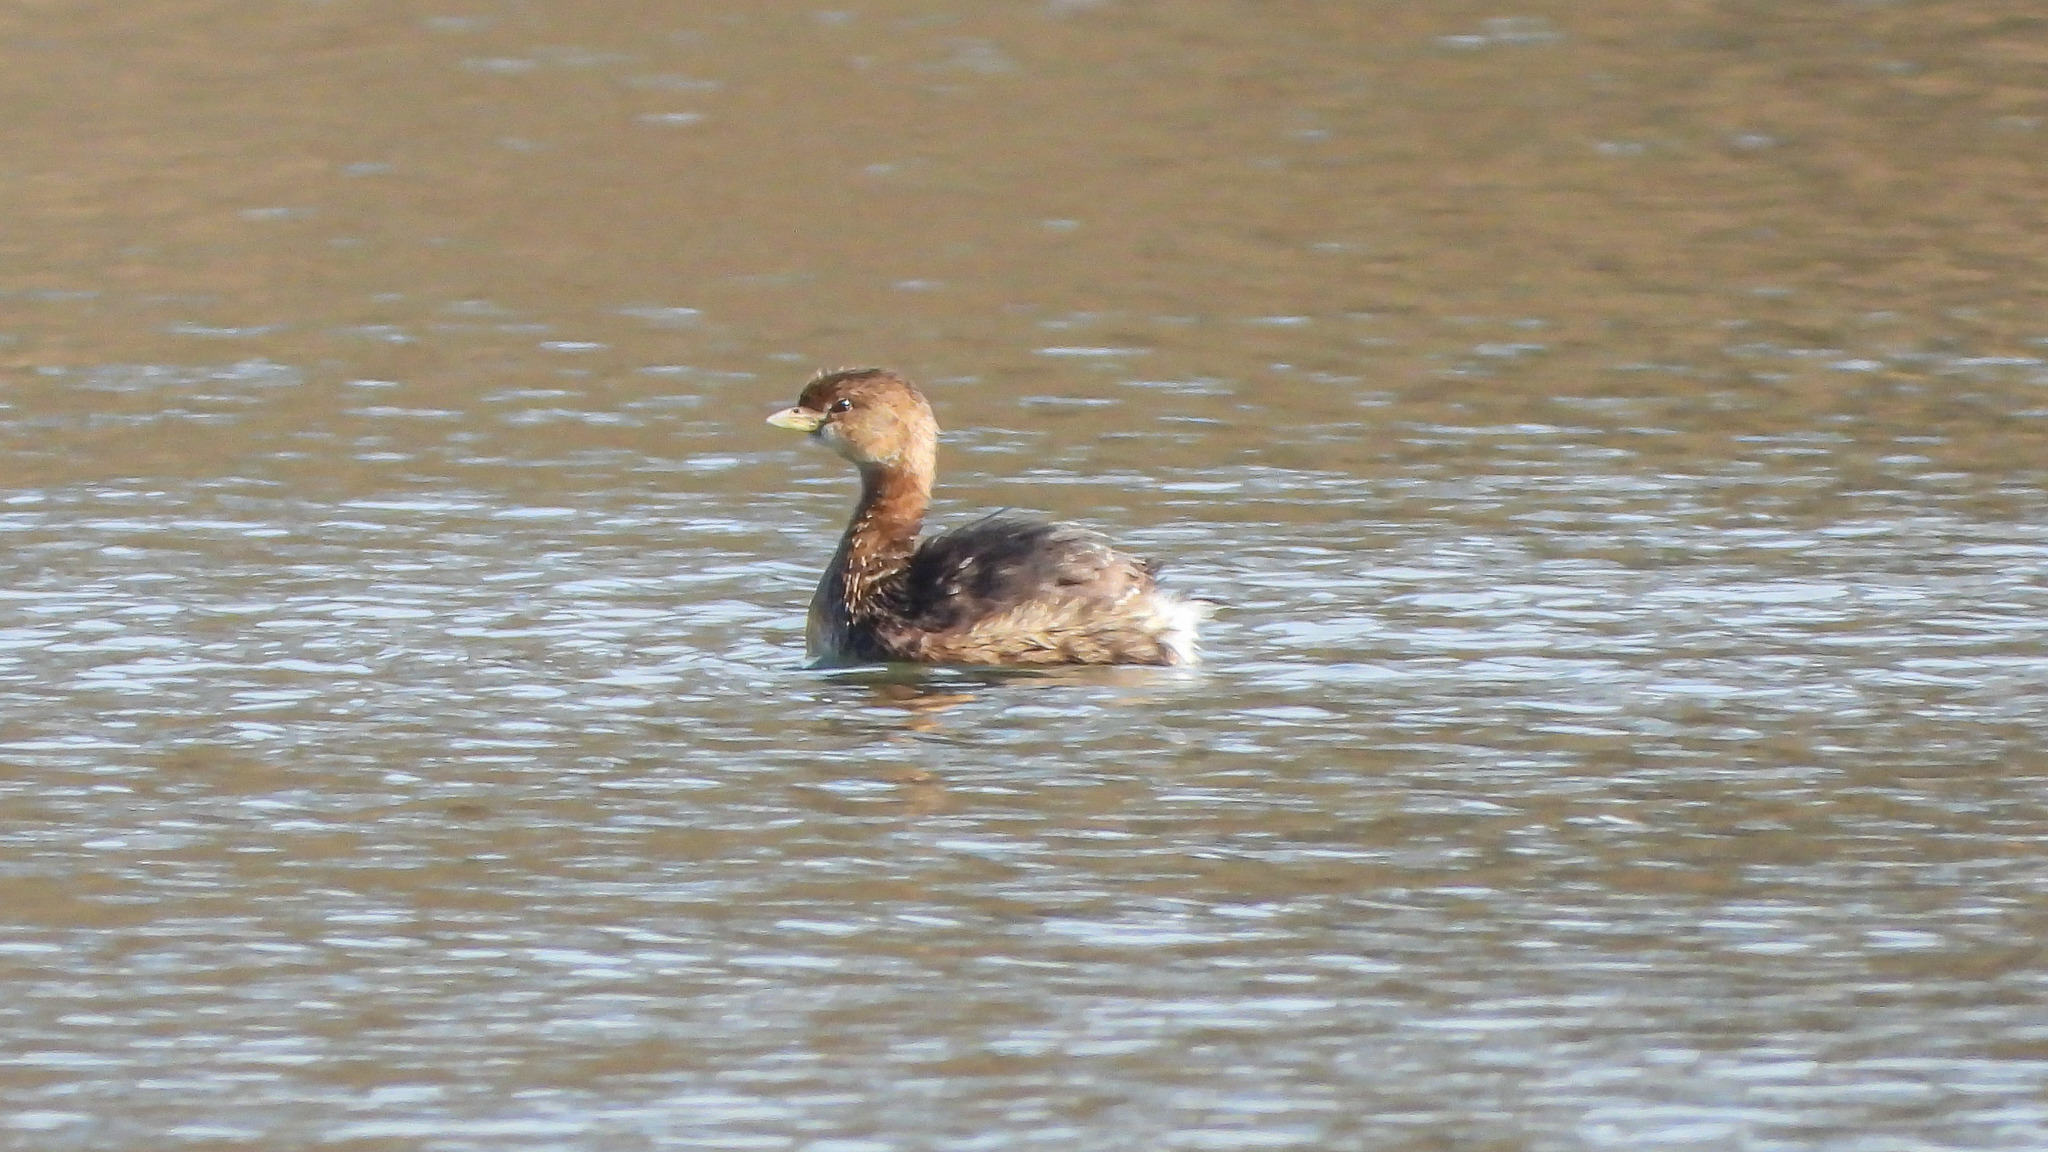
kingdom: Animalia
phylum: Chordata
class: Aves
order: Podicipediformes
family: Podicipedidae
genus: Podilymbus
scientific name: Podilymbus podiceps
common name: Pied-billed grebe
